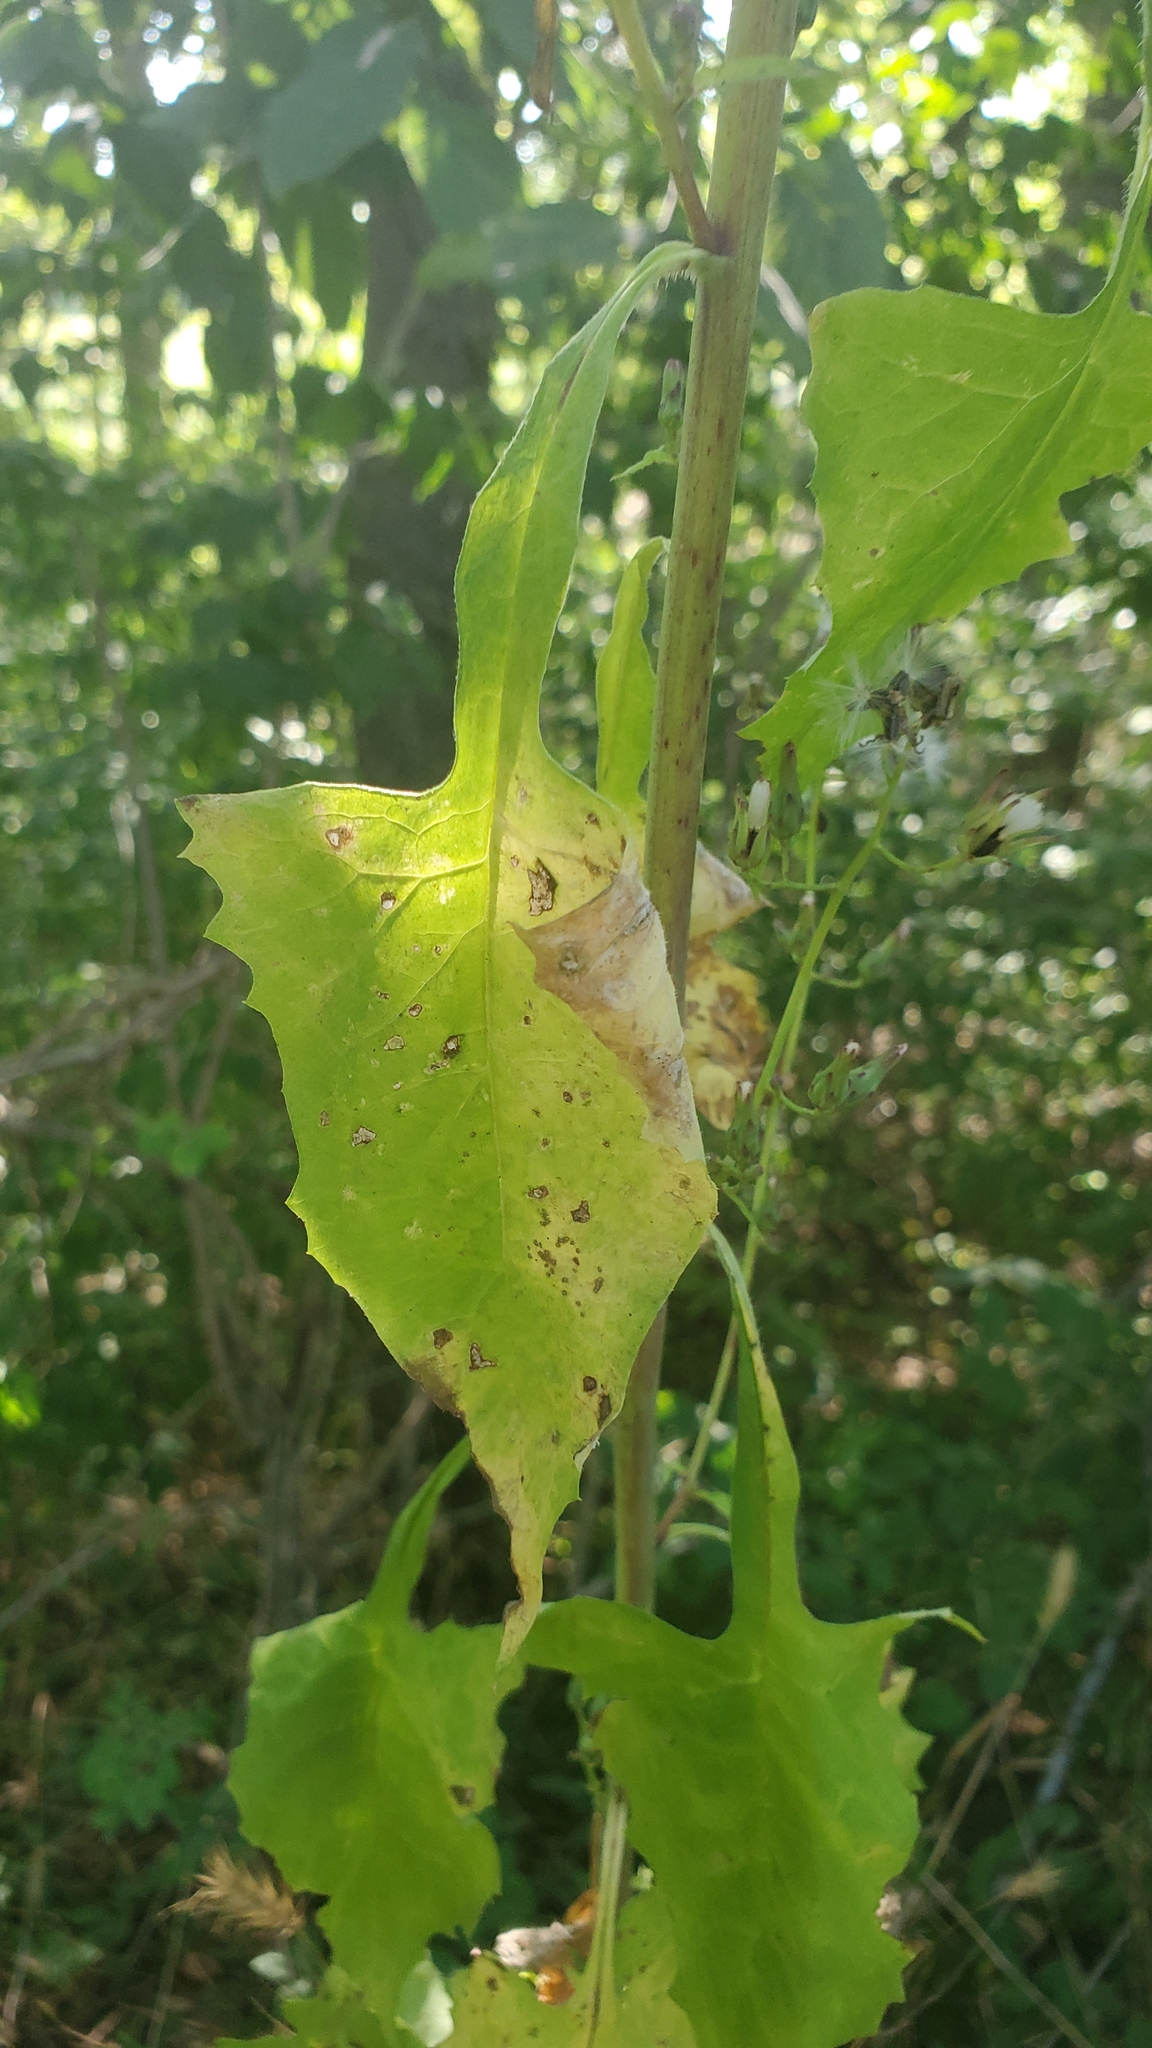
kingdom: Plantae
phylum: Tracheophyta
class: Magnoliopsida
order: Asterales
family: Asteraceae
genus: Lactuca
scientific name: Lactuca floridana
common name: Woodland lettuce
